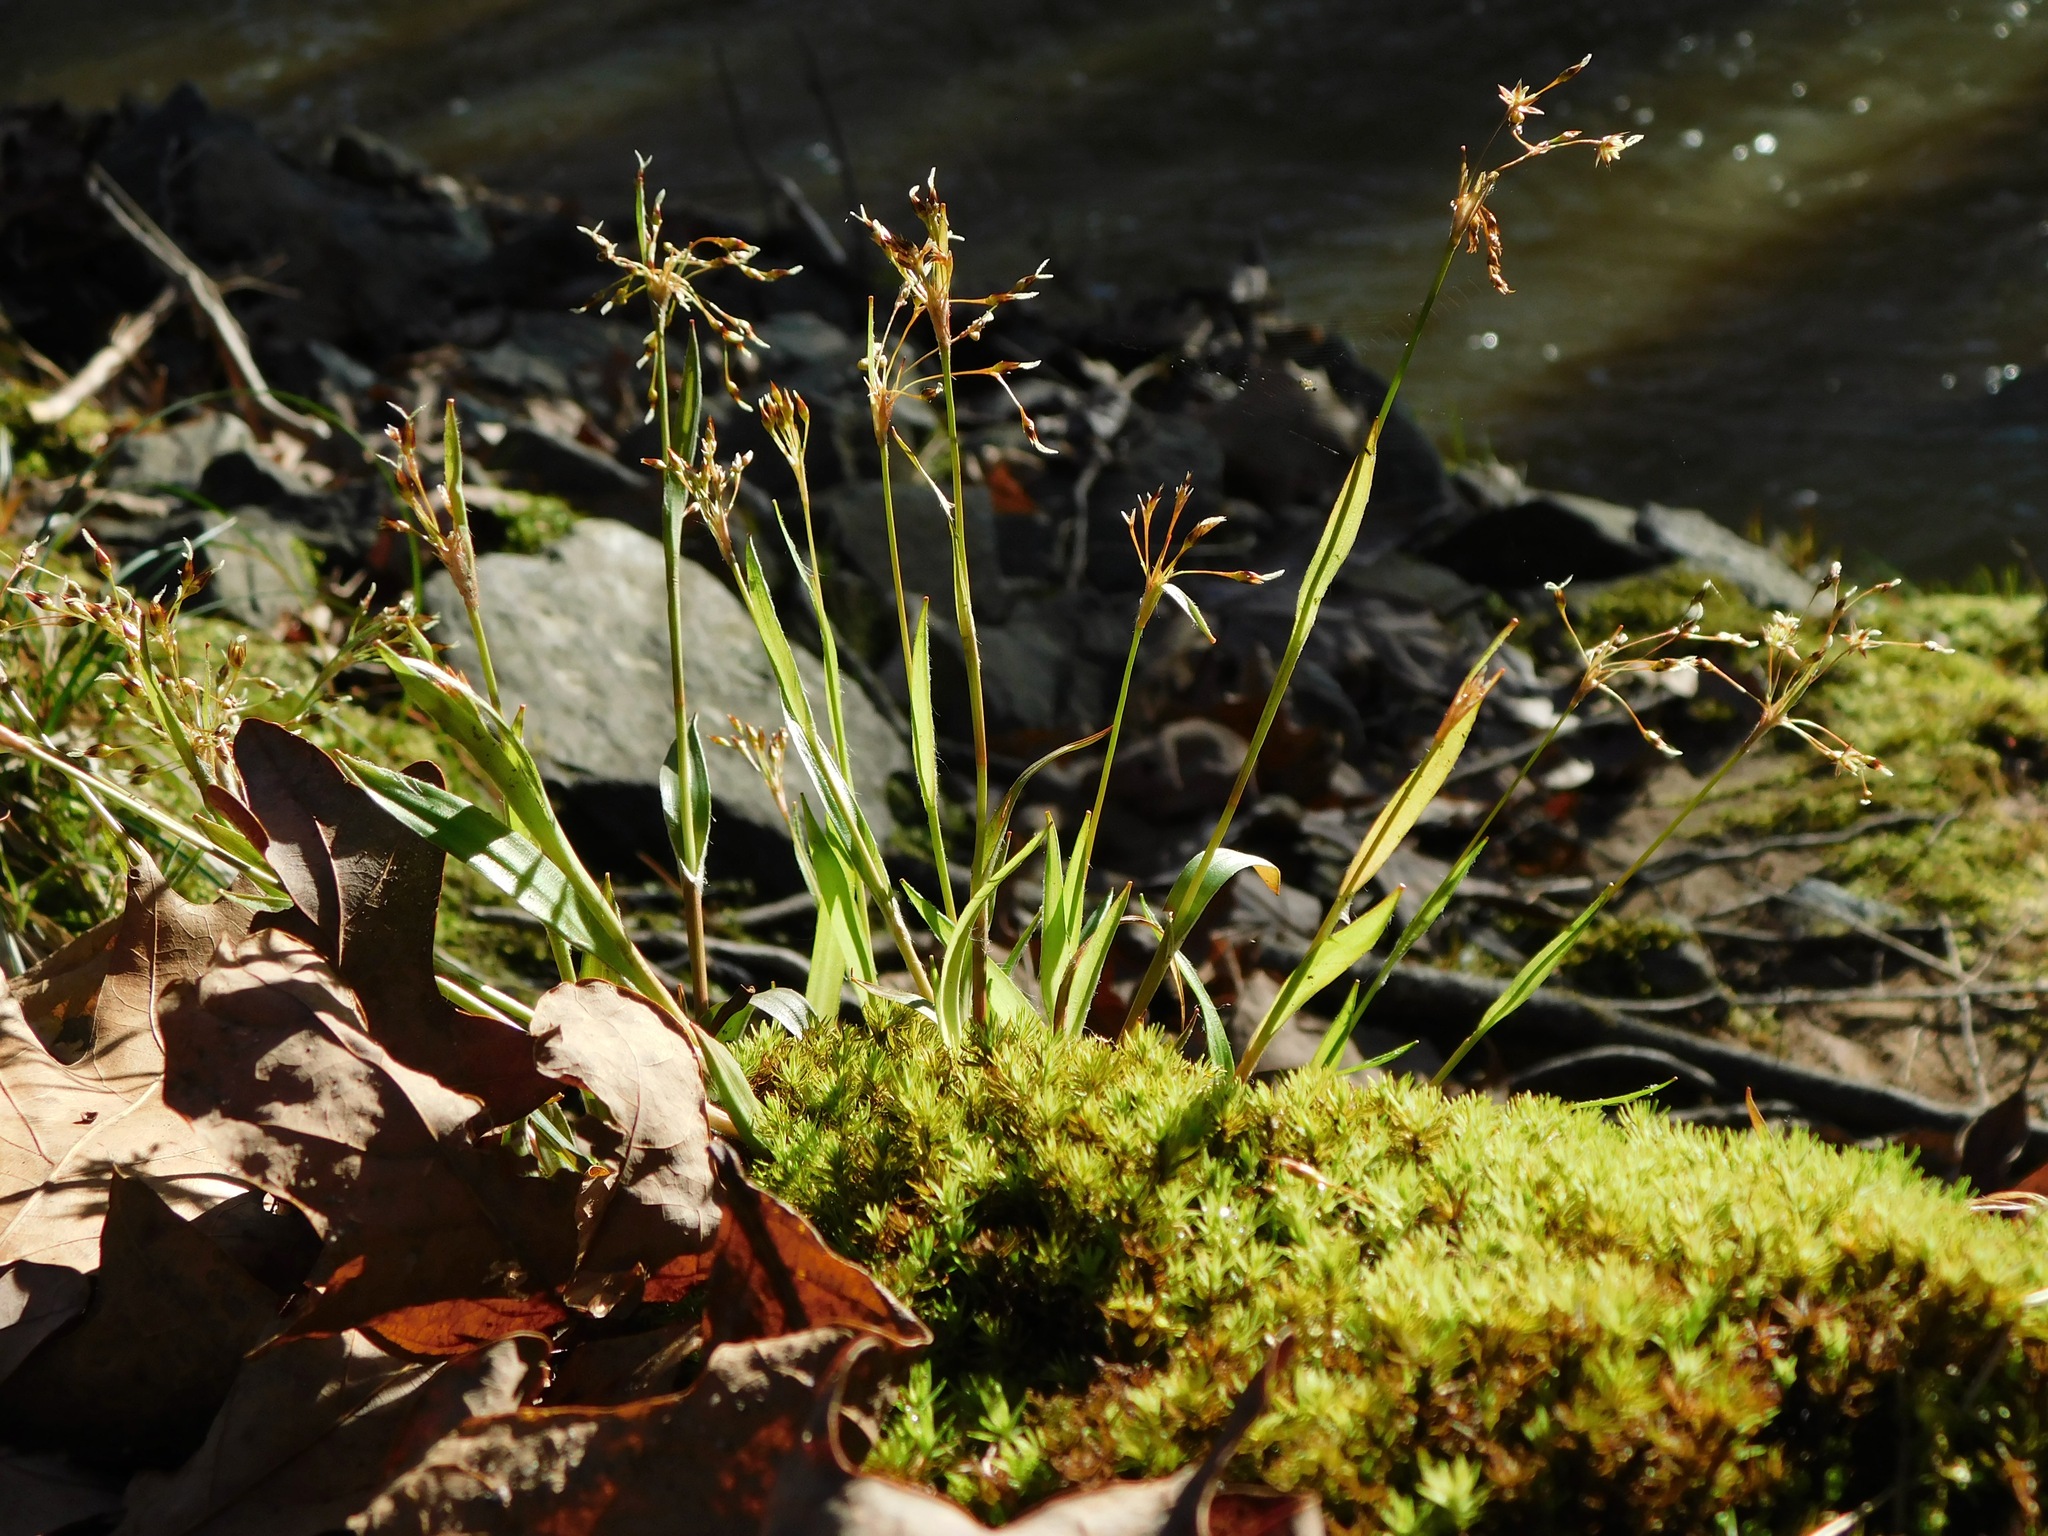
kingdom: Plantae
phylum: Tracheophyta
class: Liliopsida
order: Poales
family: Juncaceae
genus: Luzula
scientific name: Luzula acuminata
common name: Hairy woodrush
